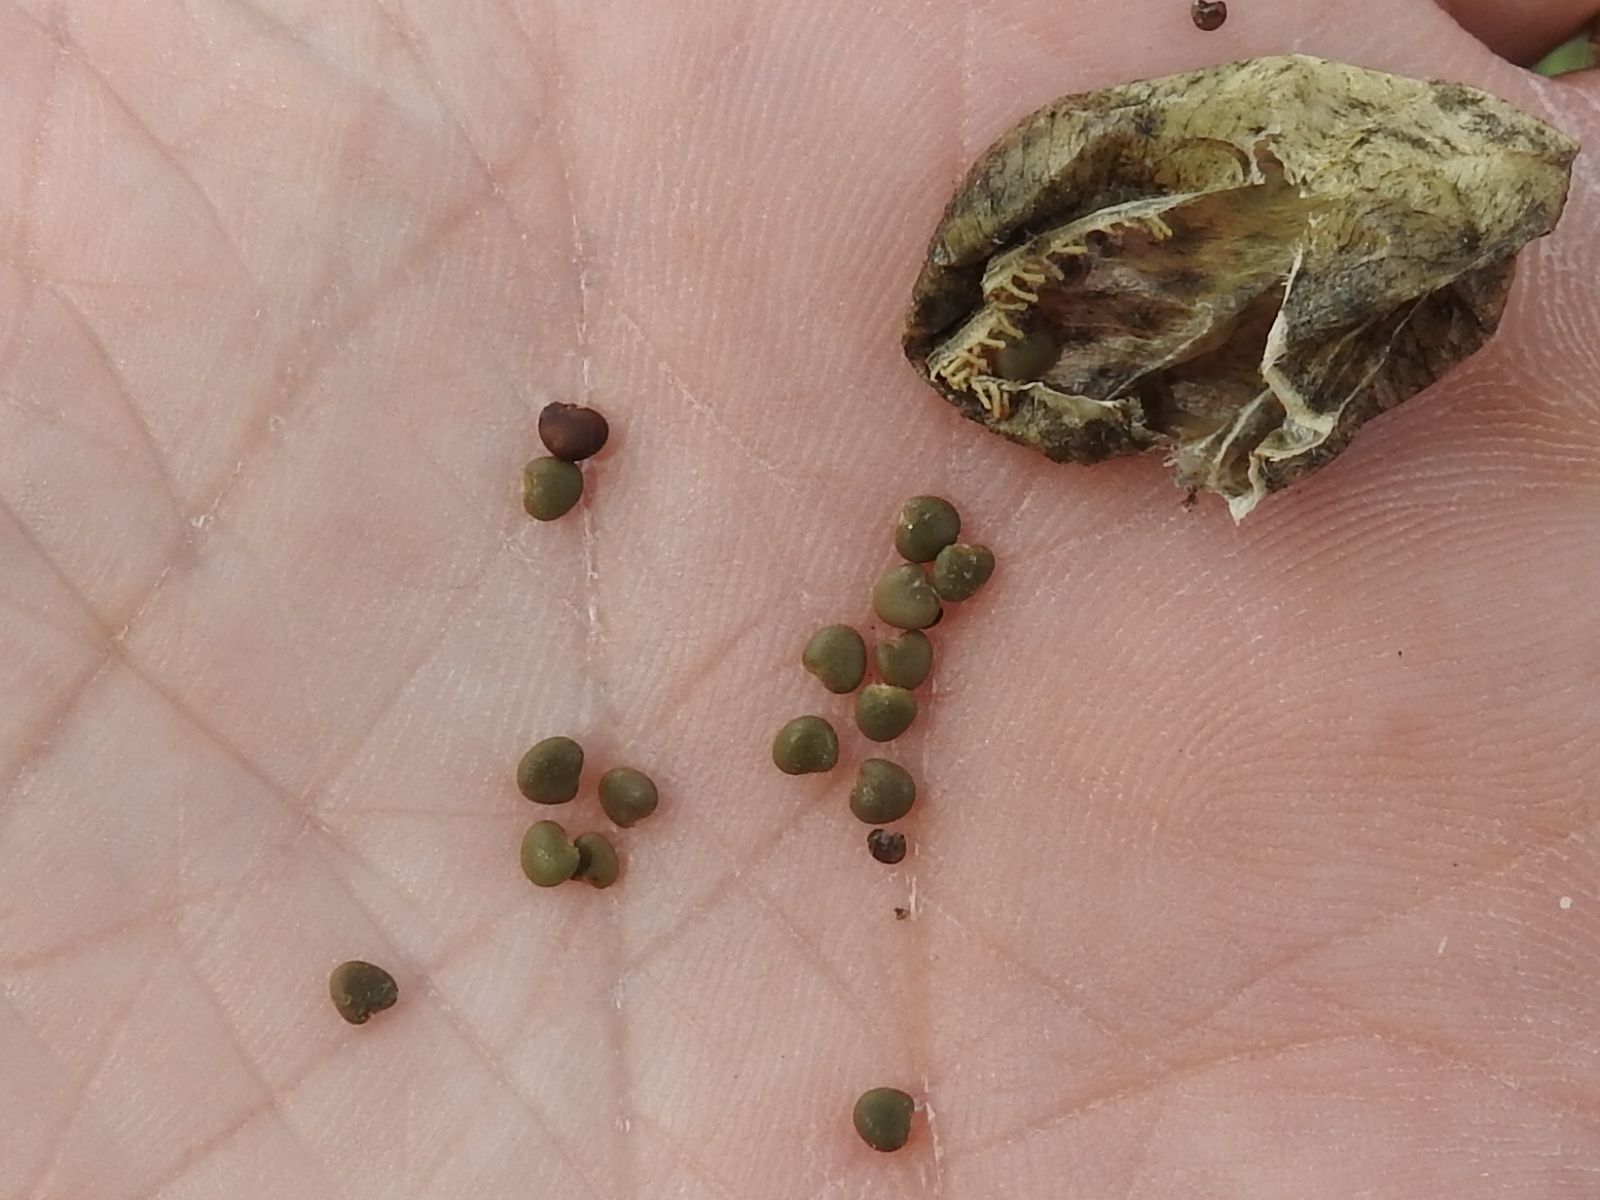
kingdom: Plantae
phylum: Tracheophyta
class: Magnoliopsida
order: Fabales
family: Fabaceae
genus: Sphaerophysa
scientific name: Sphaerophysa salsula
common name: Alkali swainsonpea
